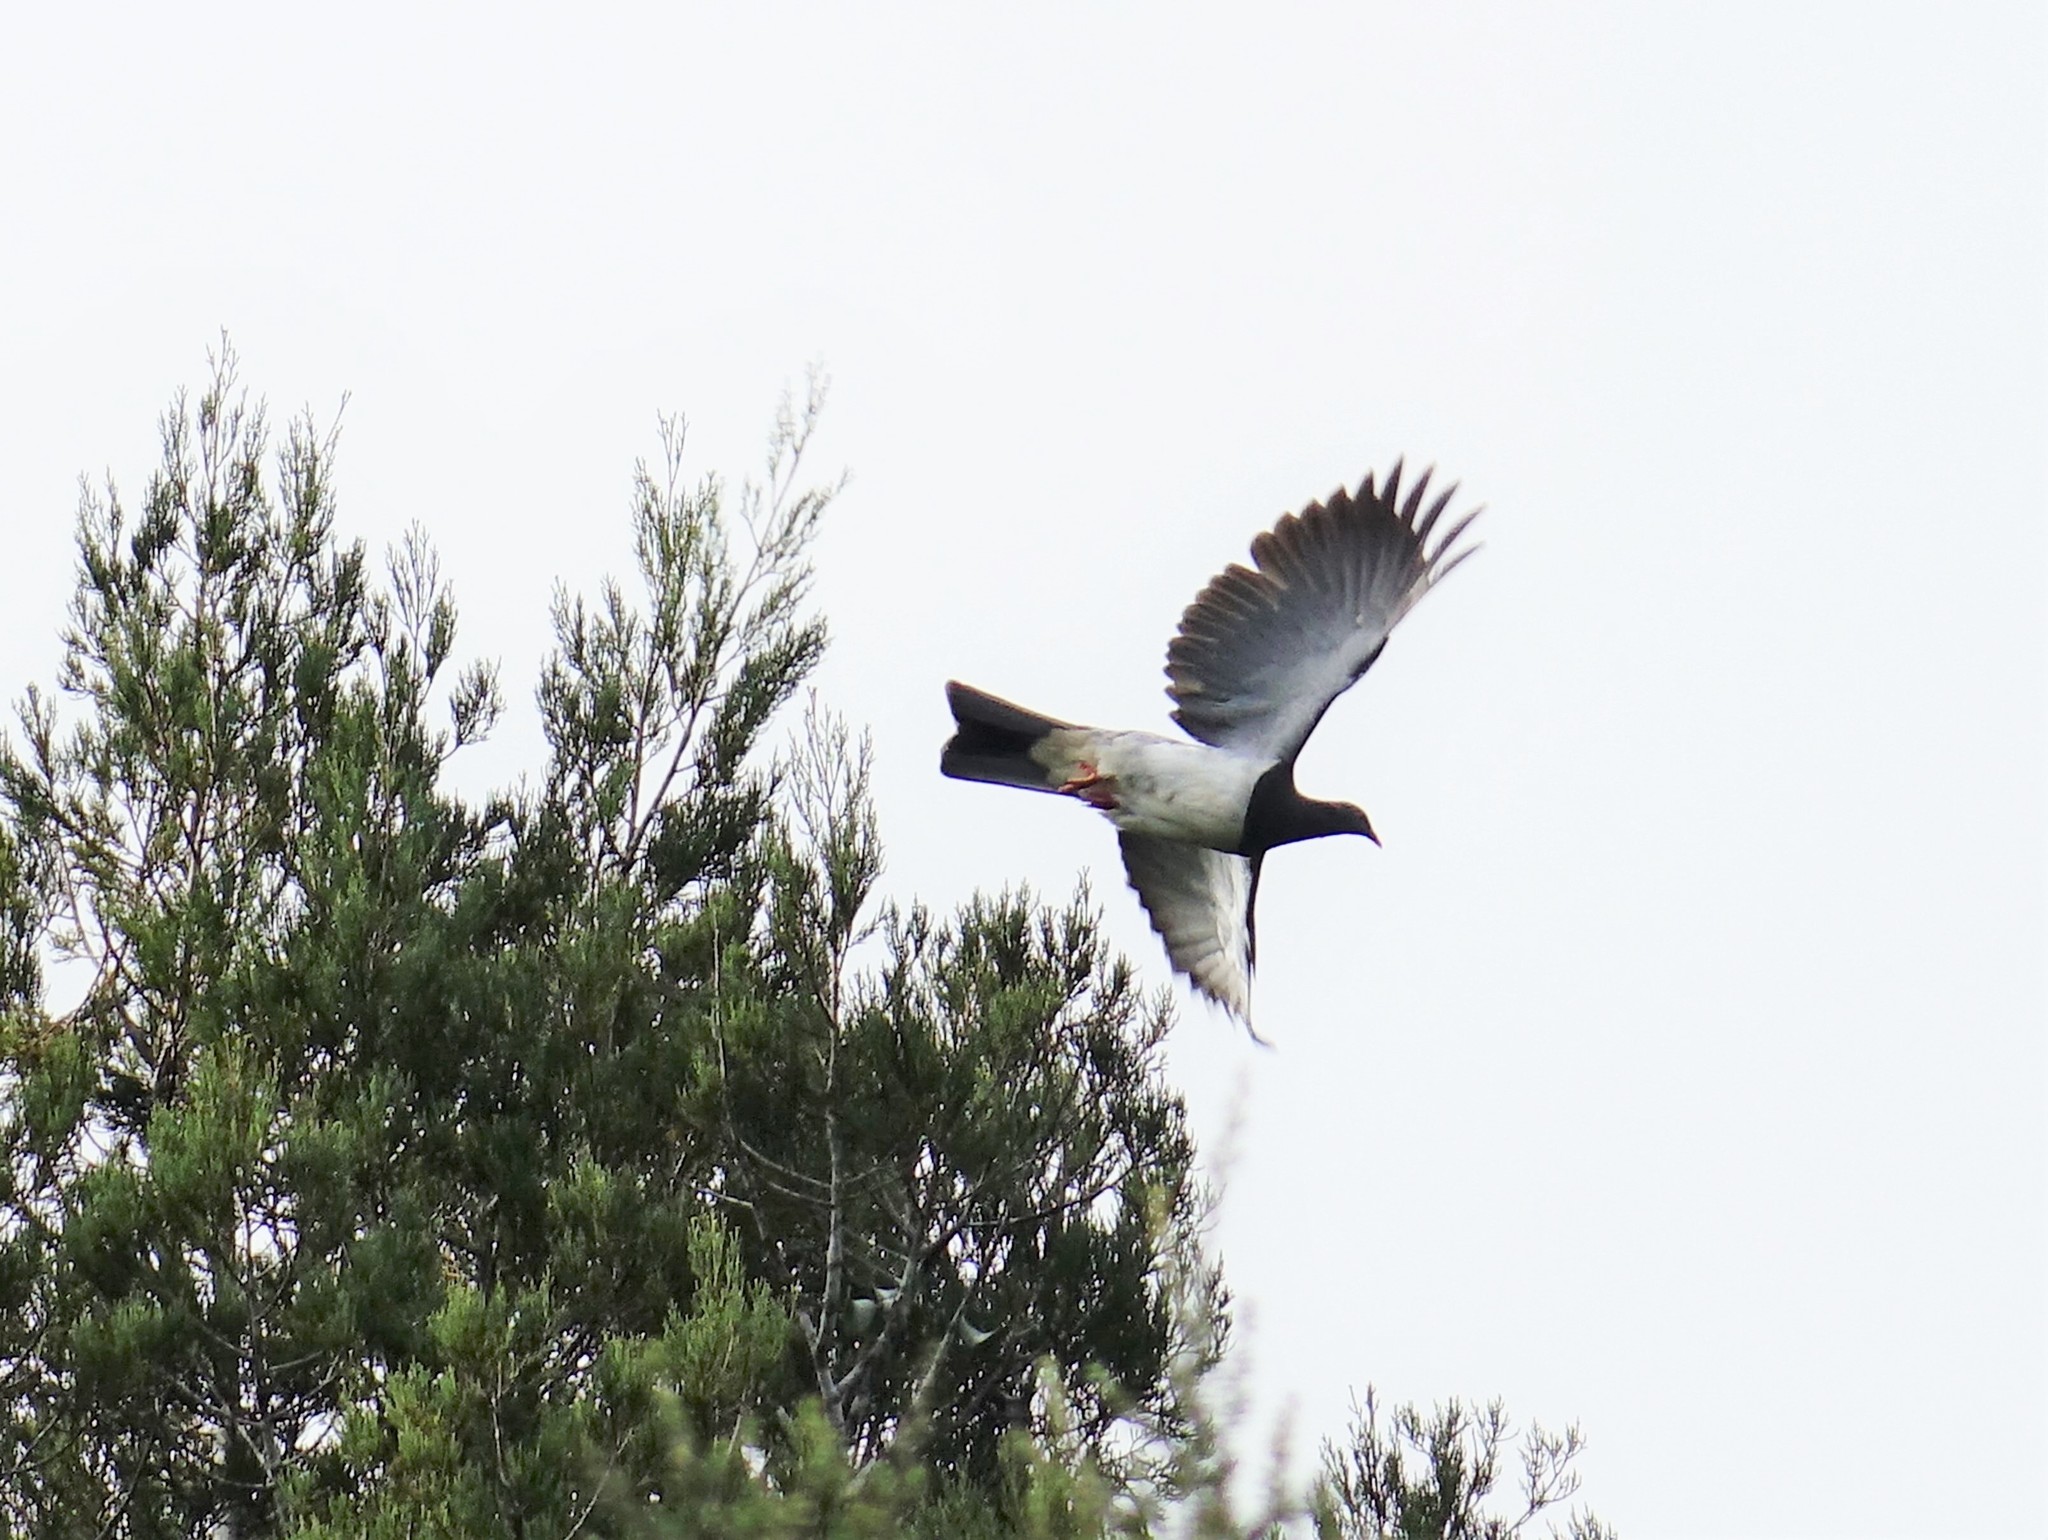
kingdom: Animalia
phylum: Chordata
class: Aves
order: Columbiformes
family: Columbidae
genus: Hemiphaga
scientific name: Hemiphaga novaeseelandiae
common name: New zealand pigeon
